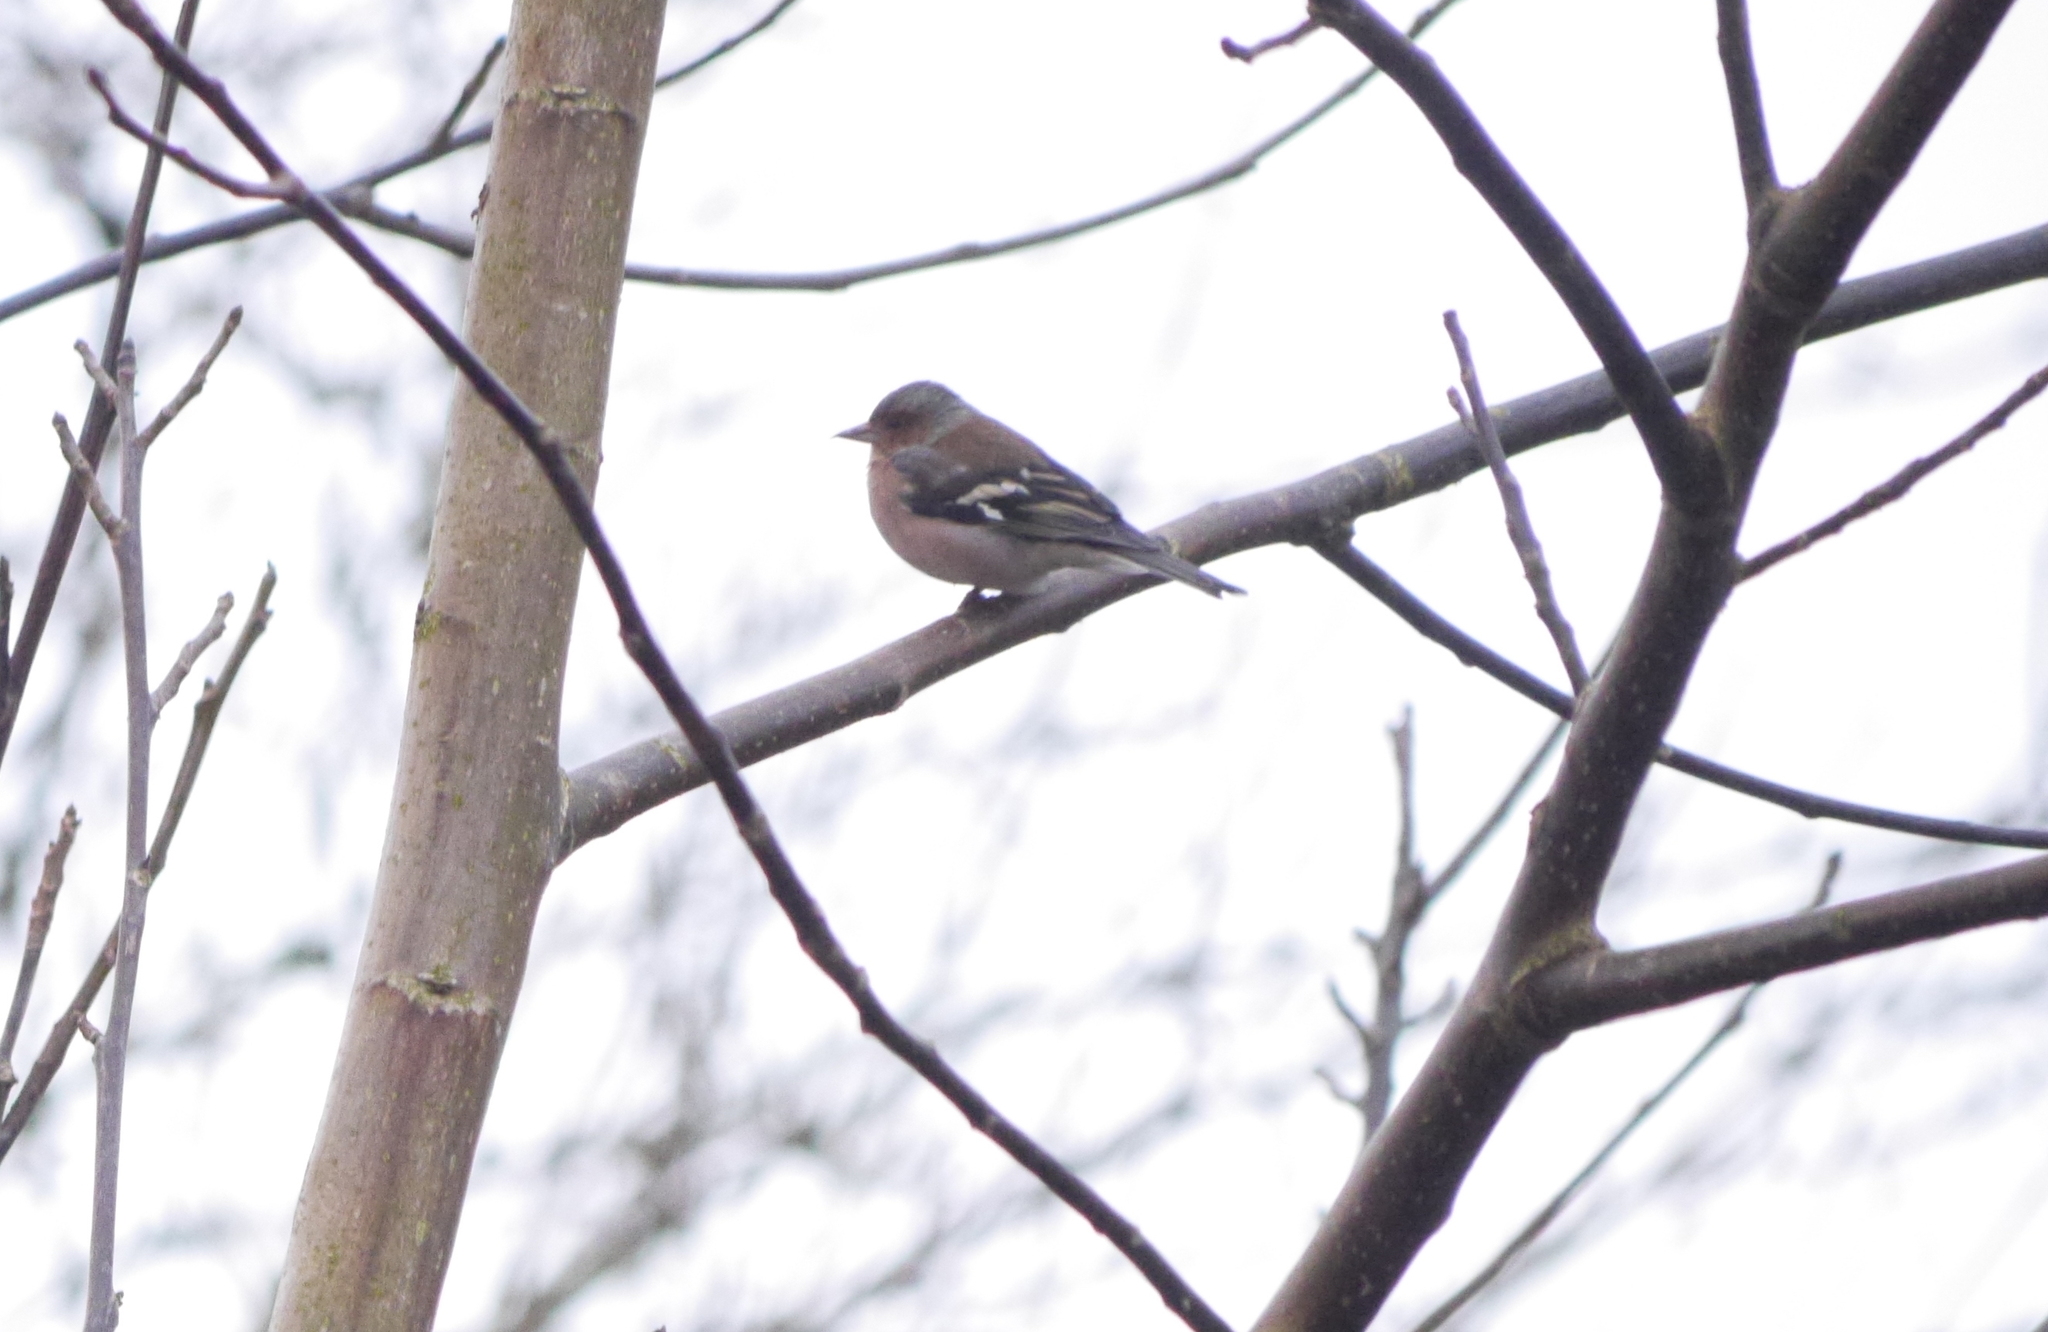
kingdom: Animalia
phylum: Chordata
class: Aves
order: Passeriformes
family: Fringillidae
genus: Fringilla
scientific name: Fringilla coelebs
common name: Common chaffinch
